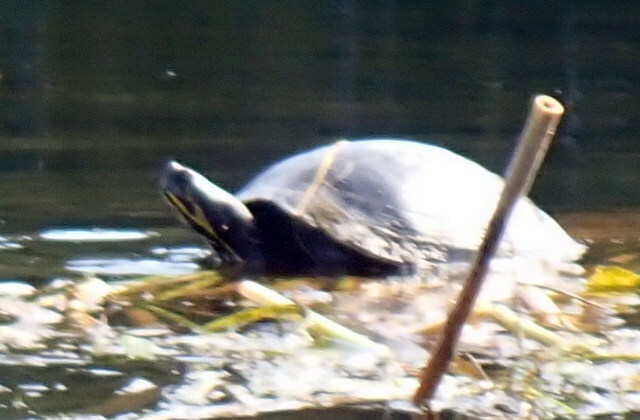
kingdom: Animalia
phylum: Chordata
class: Testudines
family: Emydidae
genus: Pseudemys
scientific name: Pseudemys concinna
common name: Eastern river cooter
